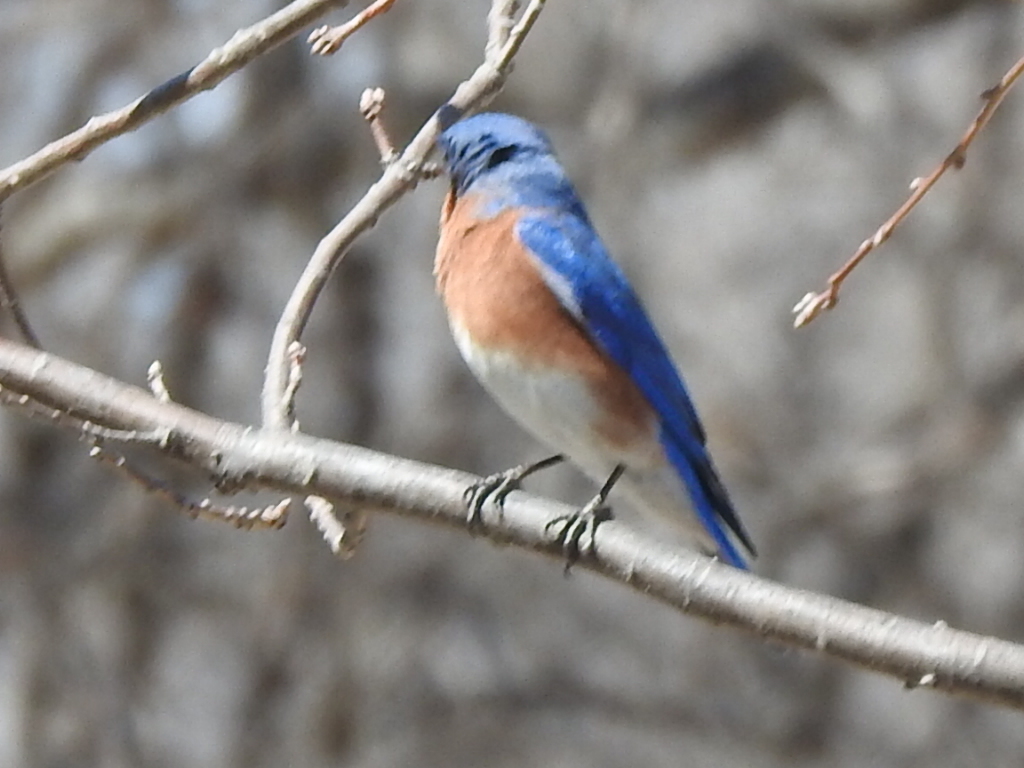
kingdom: Animalia
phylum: Chordata
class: Aves
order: Passeriformes
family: Turdidae
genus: Sialia
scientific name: Sialia sialis
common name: Eastern bluebird
